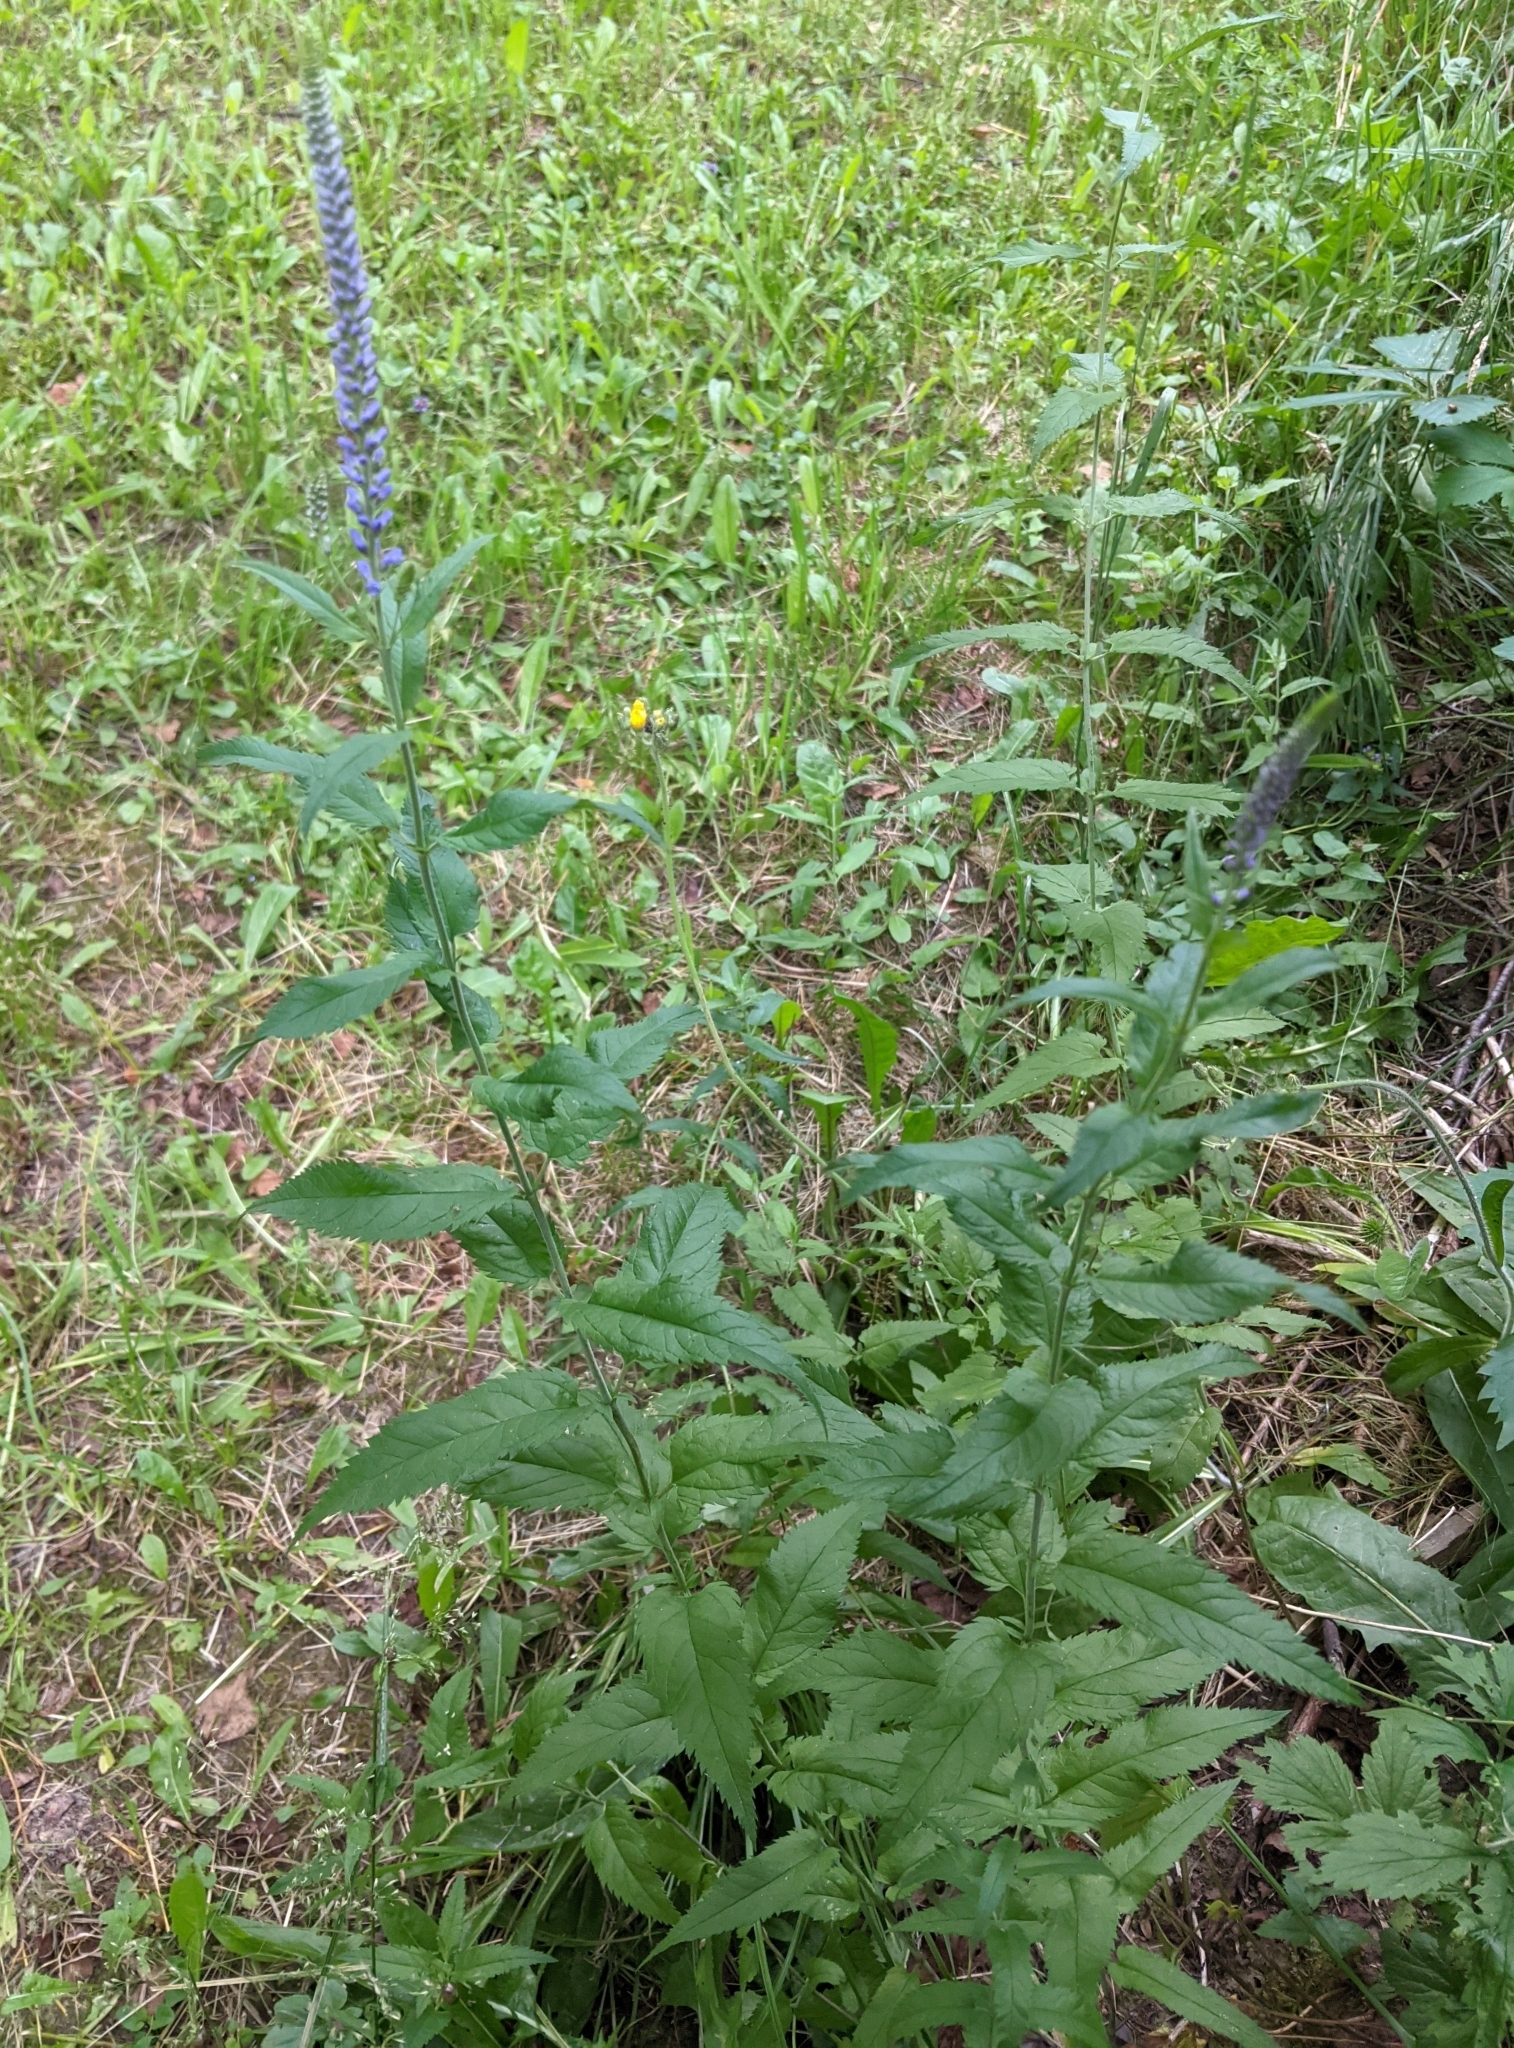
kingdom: Plantae
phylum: Tracheophyta
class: Magnoliopsida
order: Lamiales
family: Plantaginaceae
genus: Veronica
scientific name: Veronica longifolia
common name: Garden speedwell
